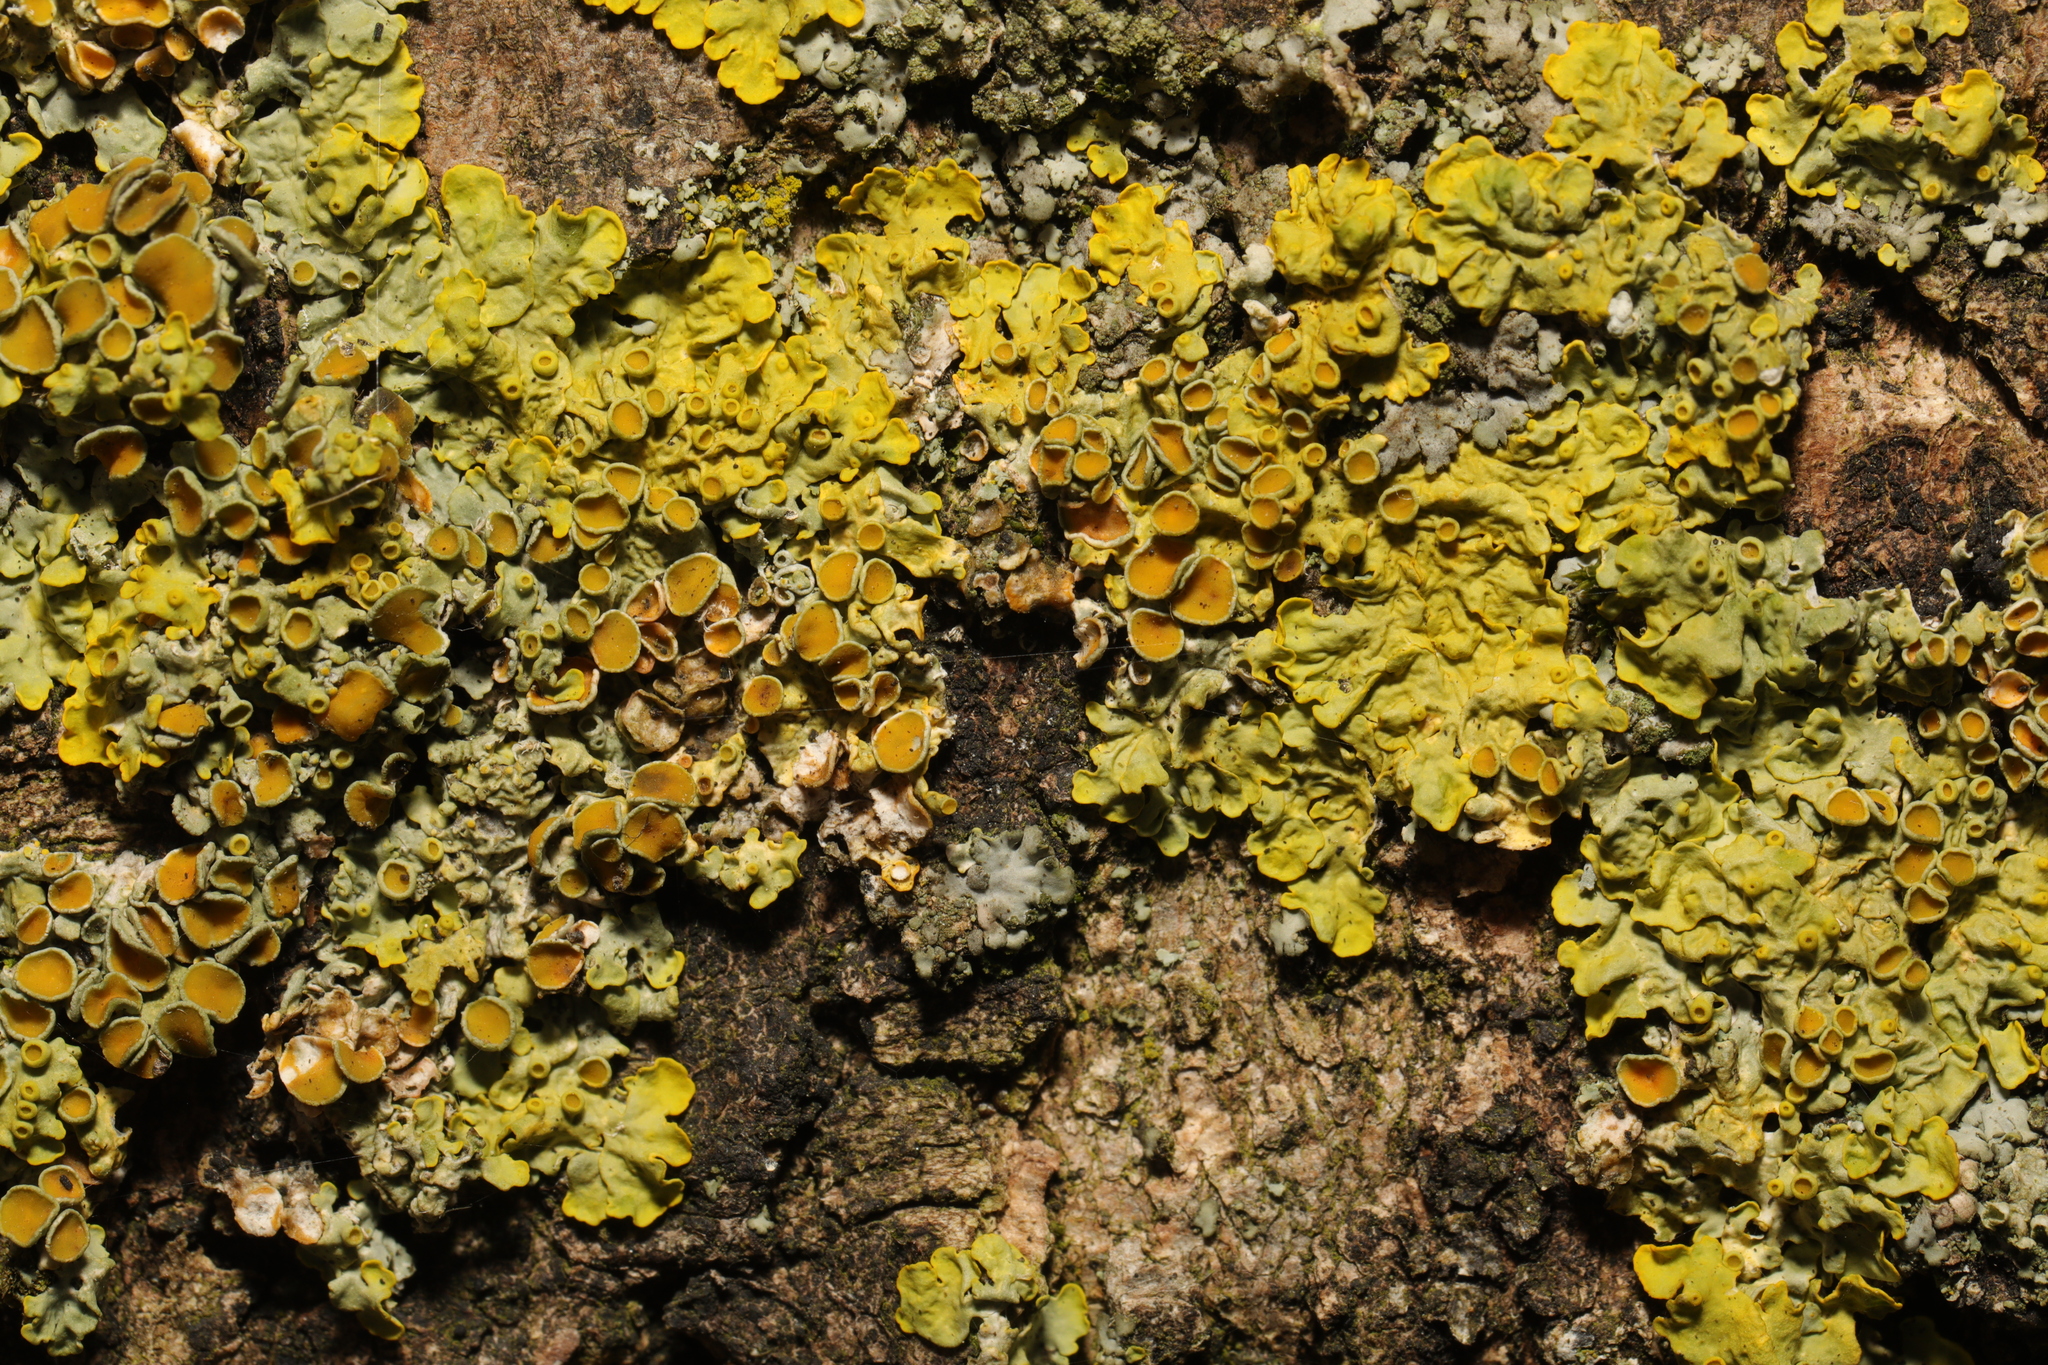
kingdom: Fungi
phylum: Ascomycota
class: Lecanoromycetes
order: Teloschistales
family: Teloschistaceae
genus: Xanthoria
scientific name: Xanthoria parietina
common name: Common orange lichen
